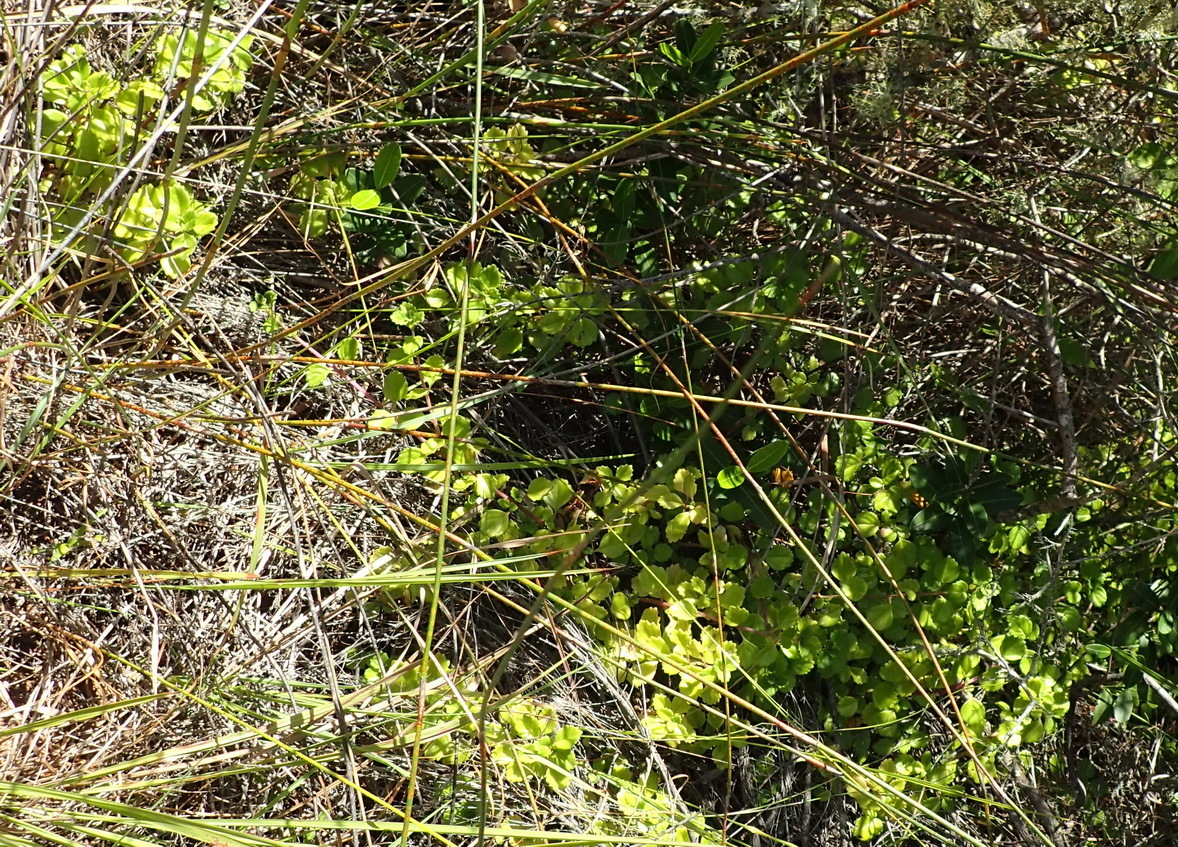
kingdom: Plantae
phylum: Tracheophyta
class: Magnoliopsida
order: Lamiales
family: Lamiaceae
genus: Plectranthus
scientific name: Plectranthus verticillatus
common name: Whorled plectranthus
